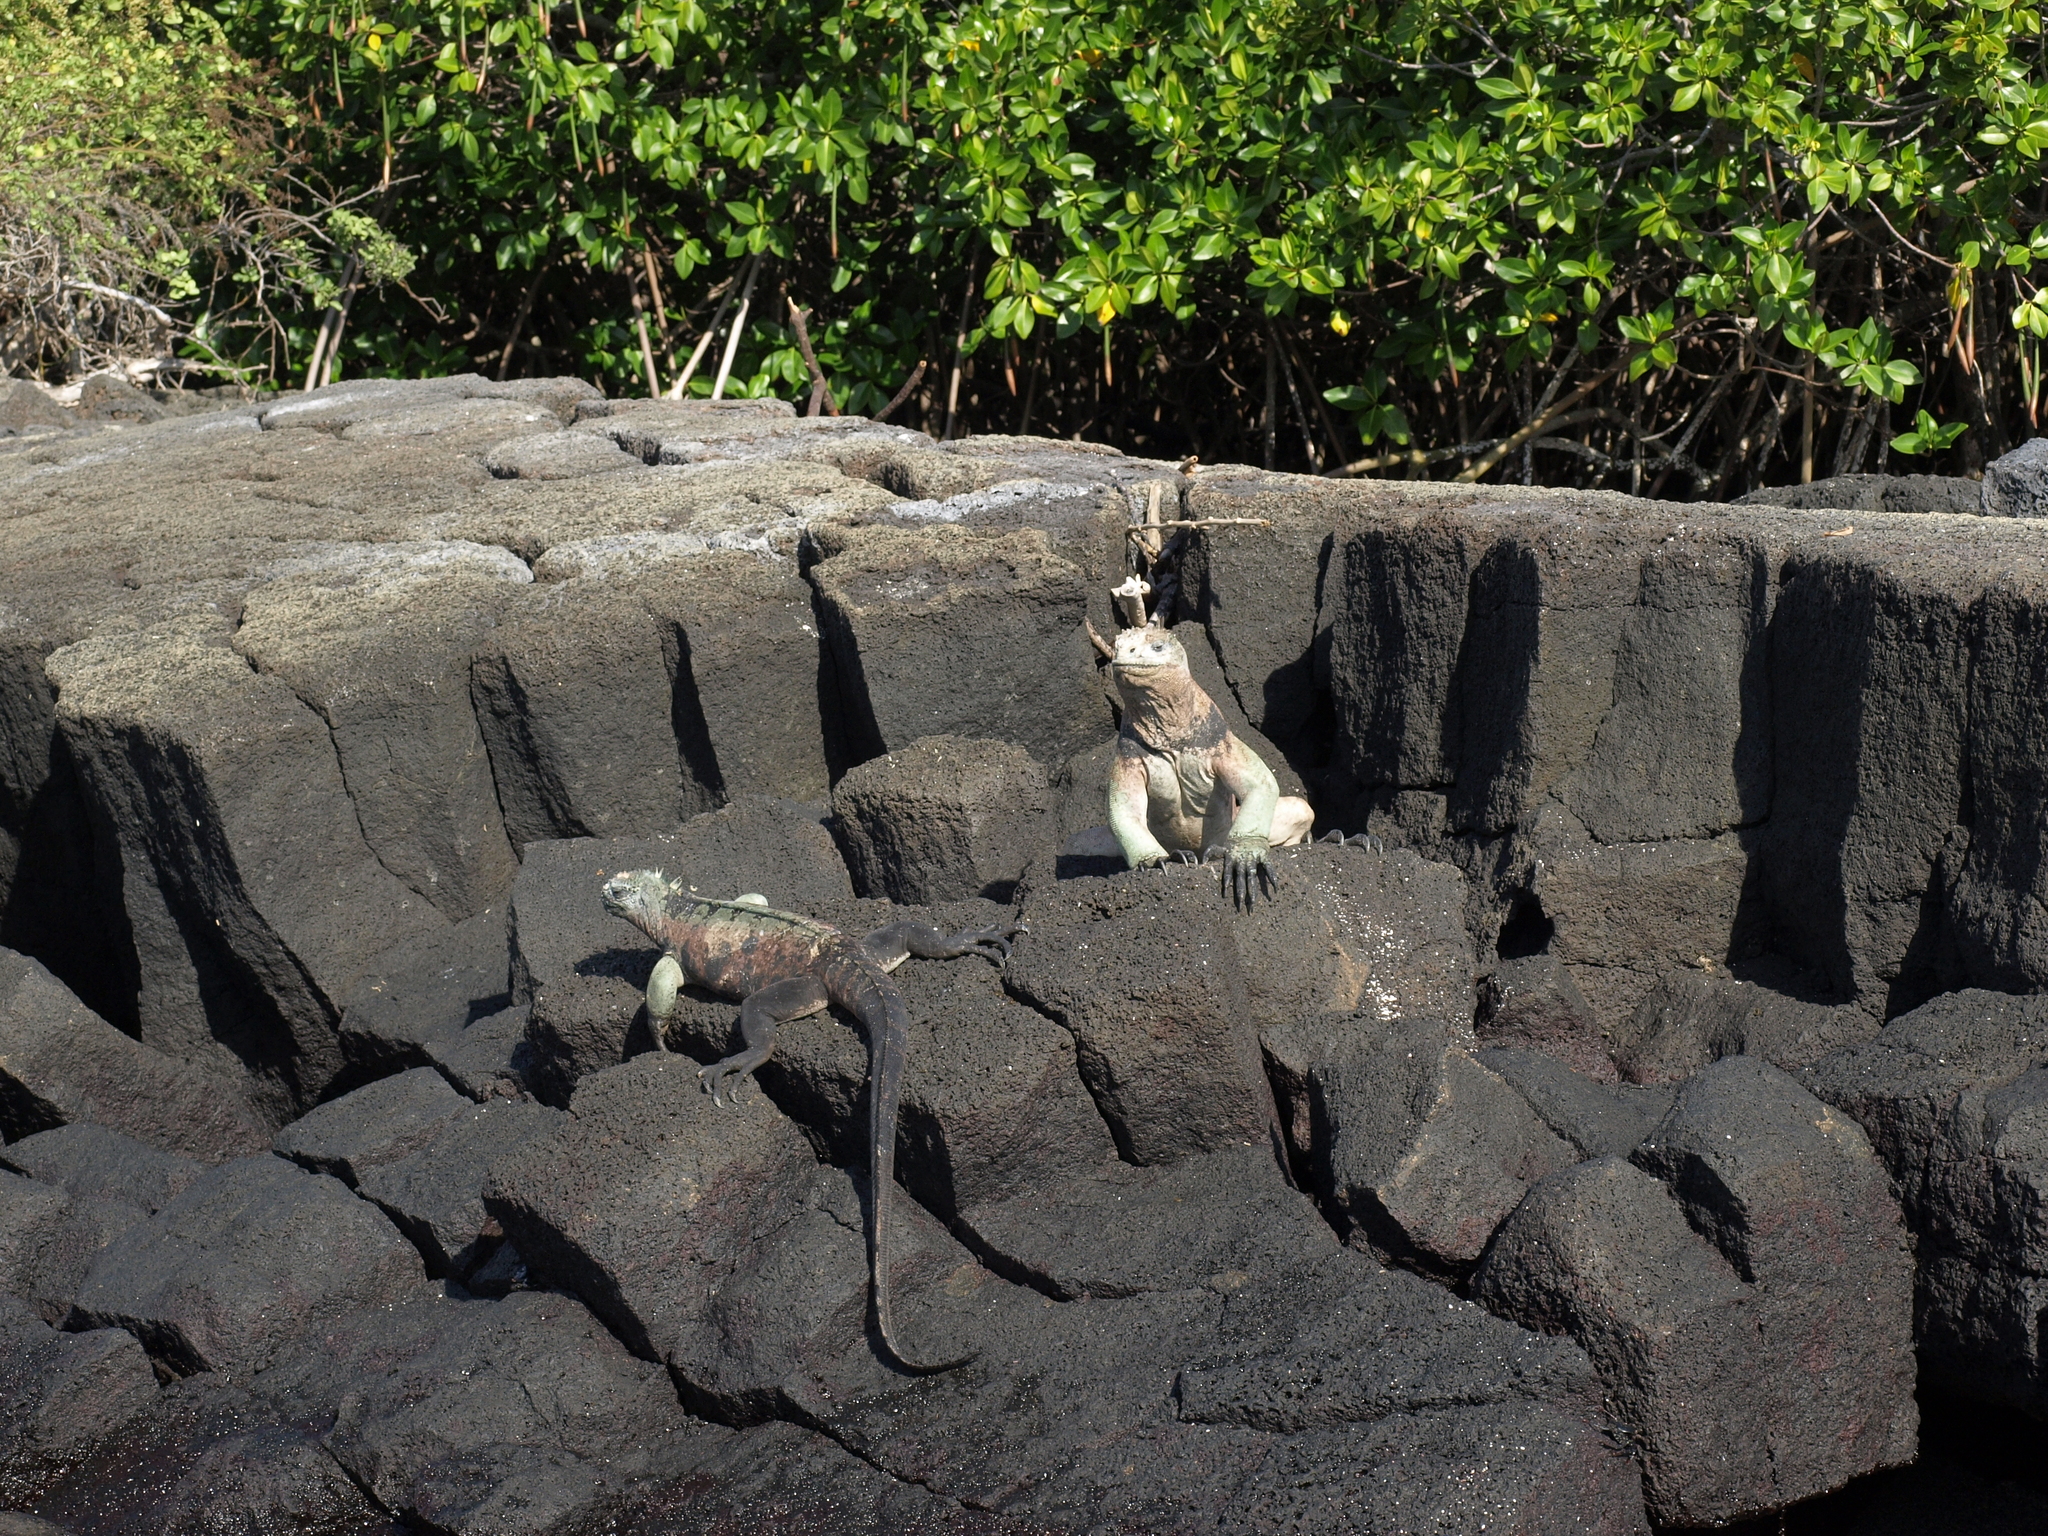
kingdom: Animalia
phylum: Chordata
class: Squamata
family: Iguanidae
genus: Amblyrhynchus
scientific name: Amblyrhynchus cristatus
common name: Marine iguana
